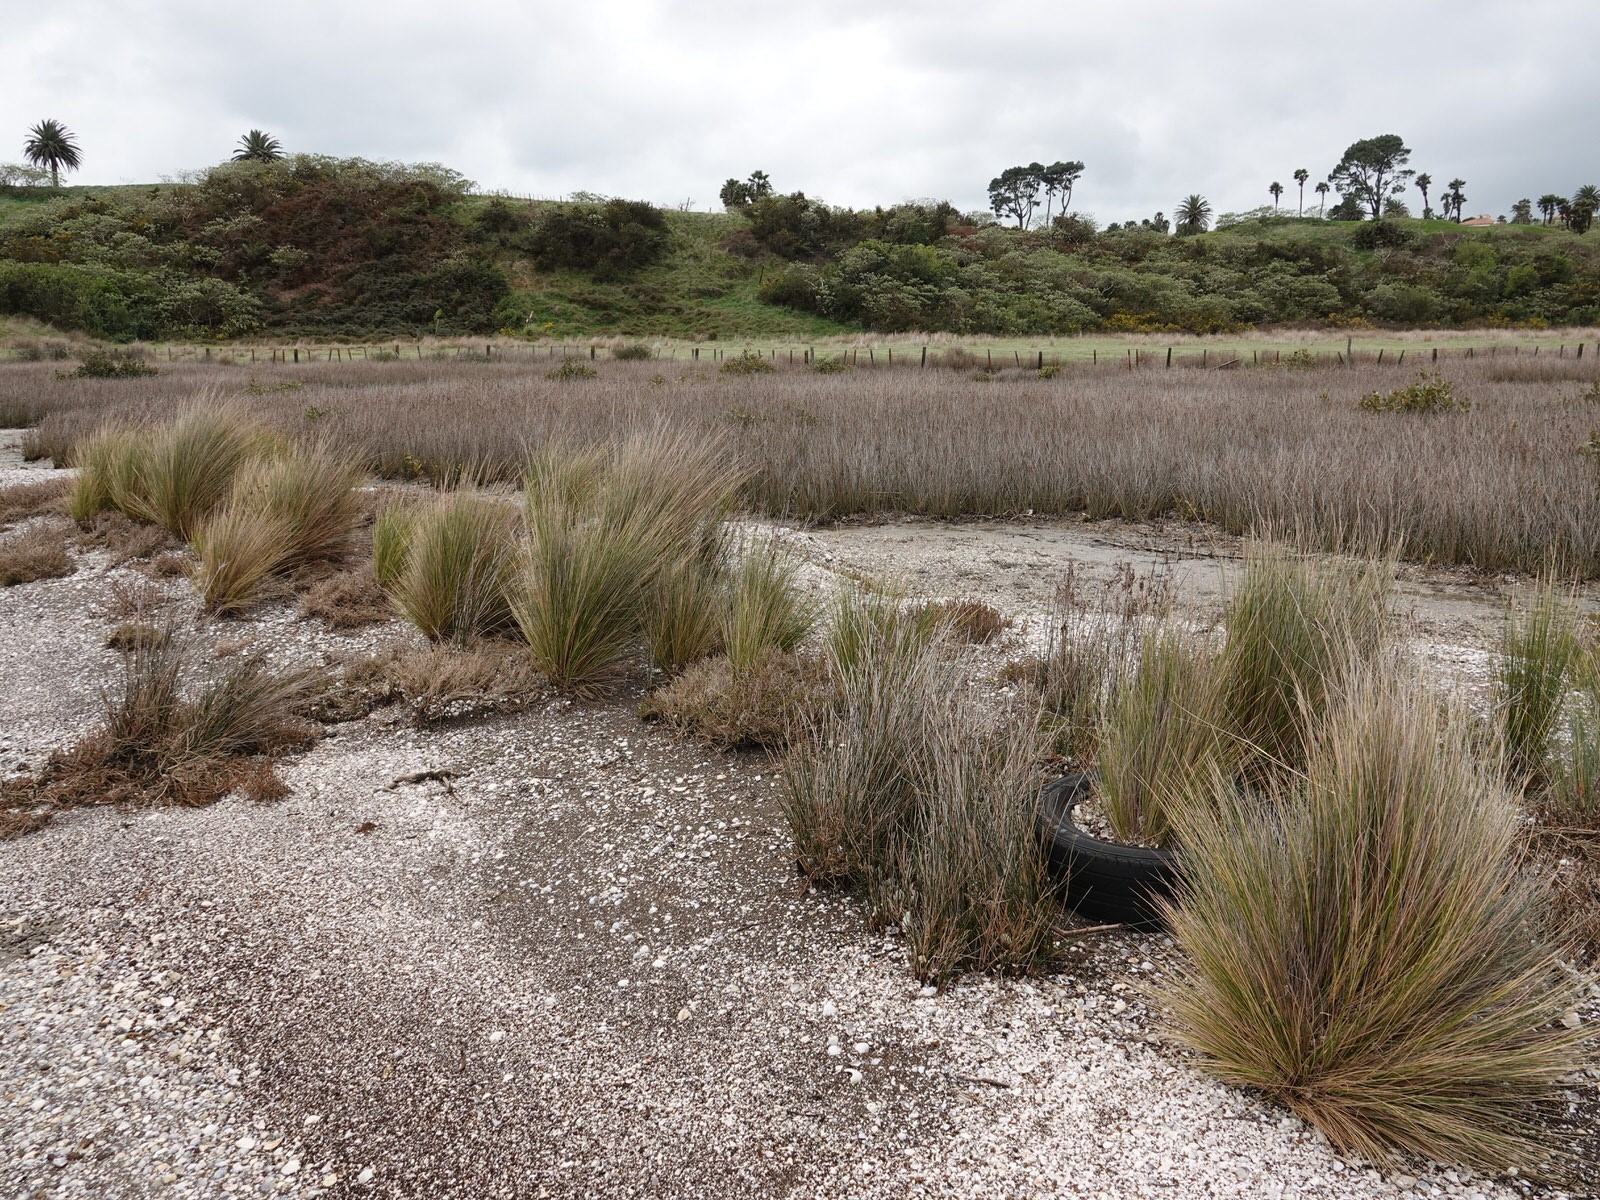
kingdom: Plantae
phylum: Tracheophyta
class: Liliopsida
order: Poales
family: Poaceae
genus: Austrostipa
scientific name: Austrostipa stipoides
